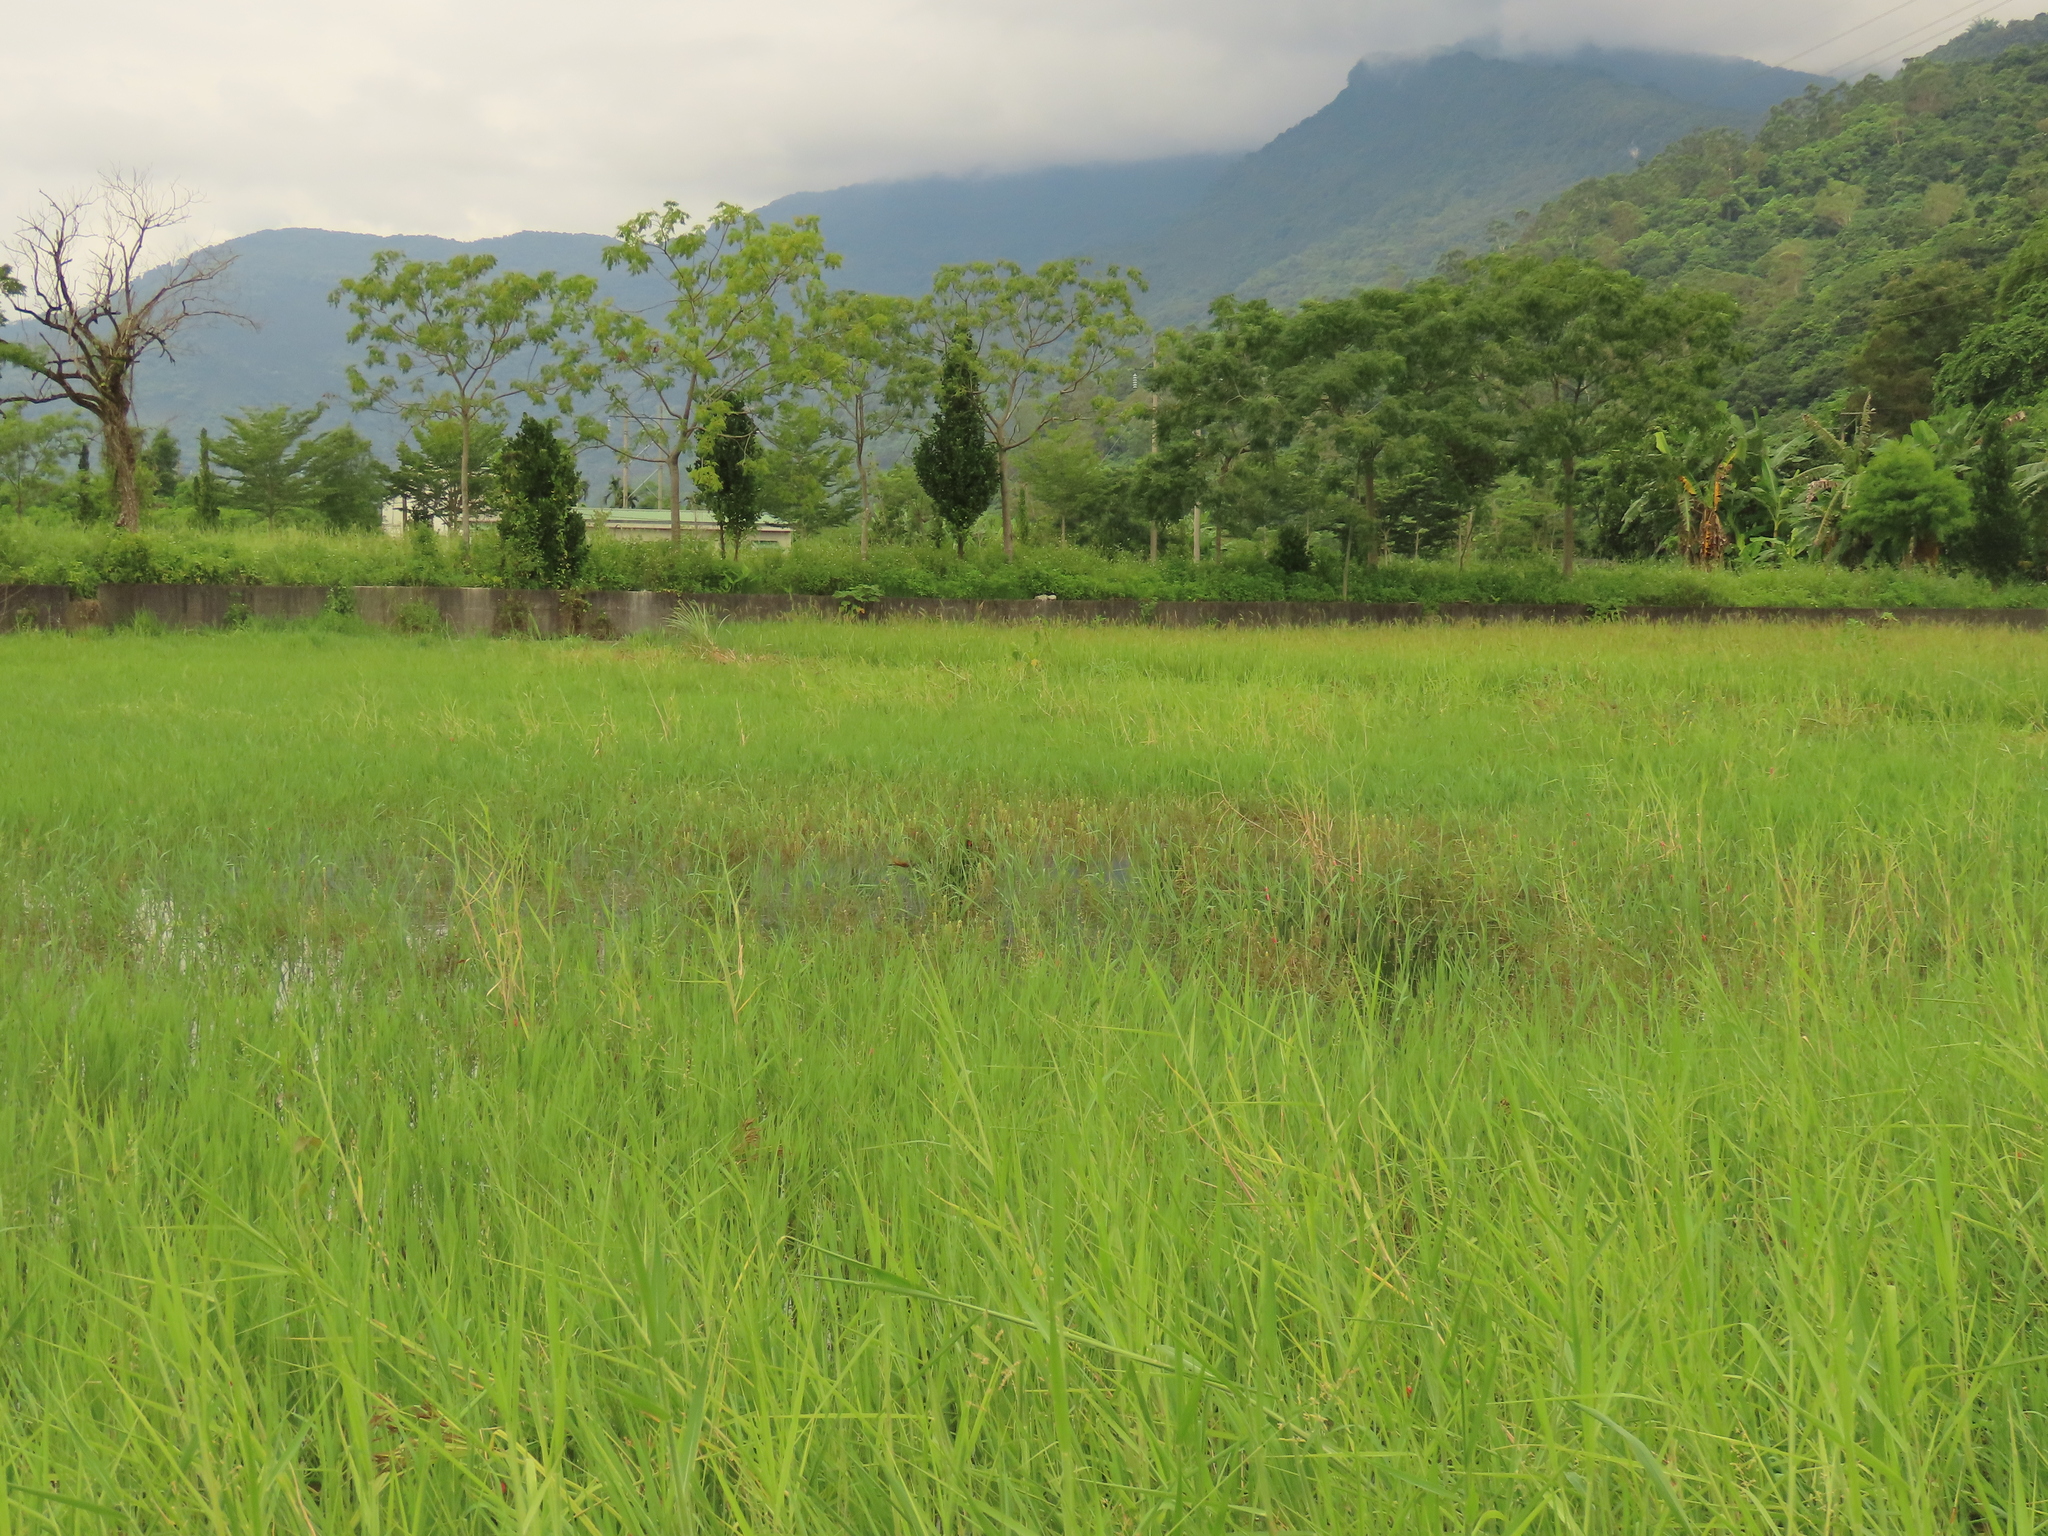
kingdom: Plantae
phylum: Tracheophyta
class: Magnoliopsida
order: Rosales
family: Urticaceae
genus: Gonostegia
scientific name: Gonostegia pentandra
